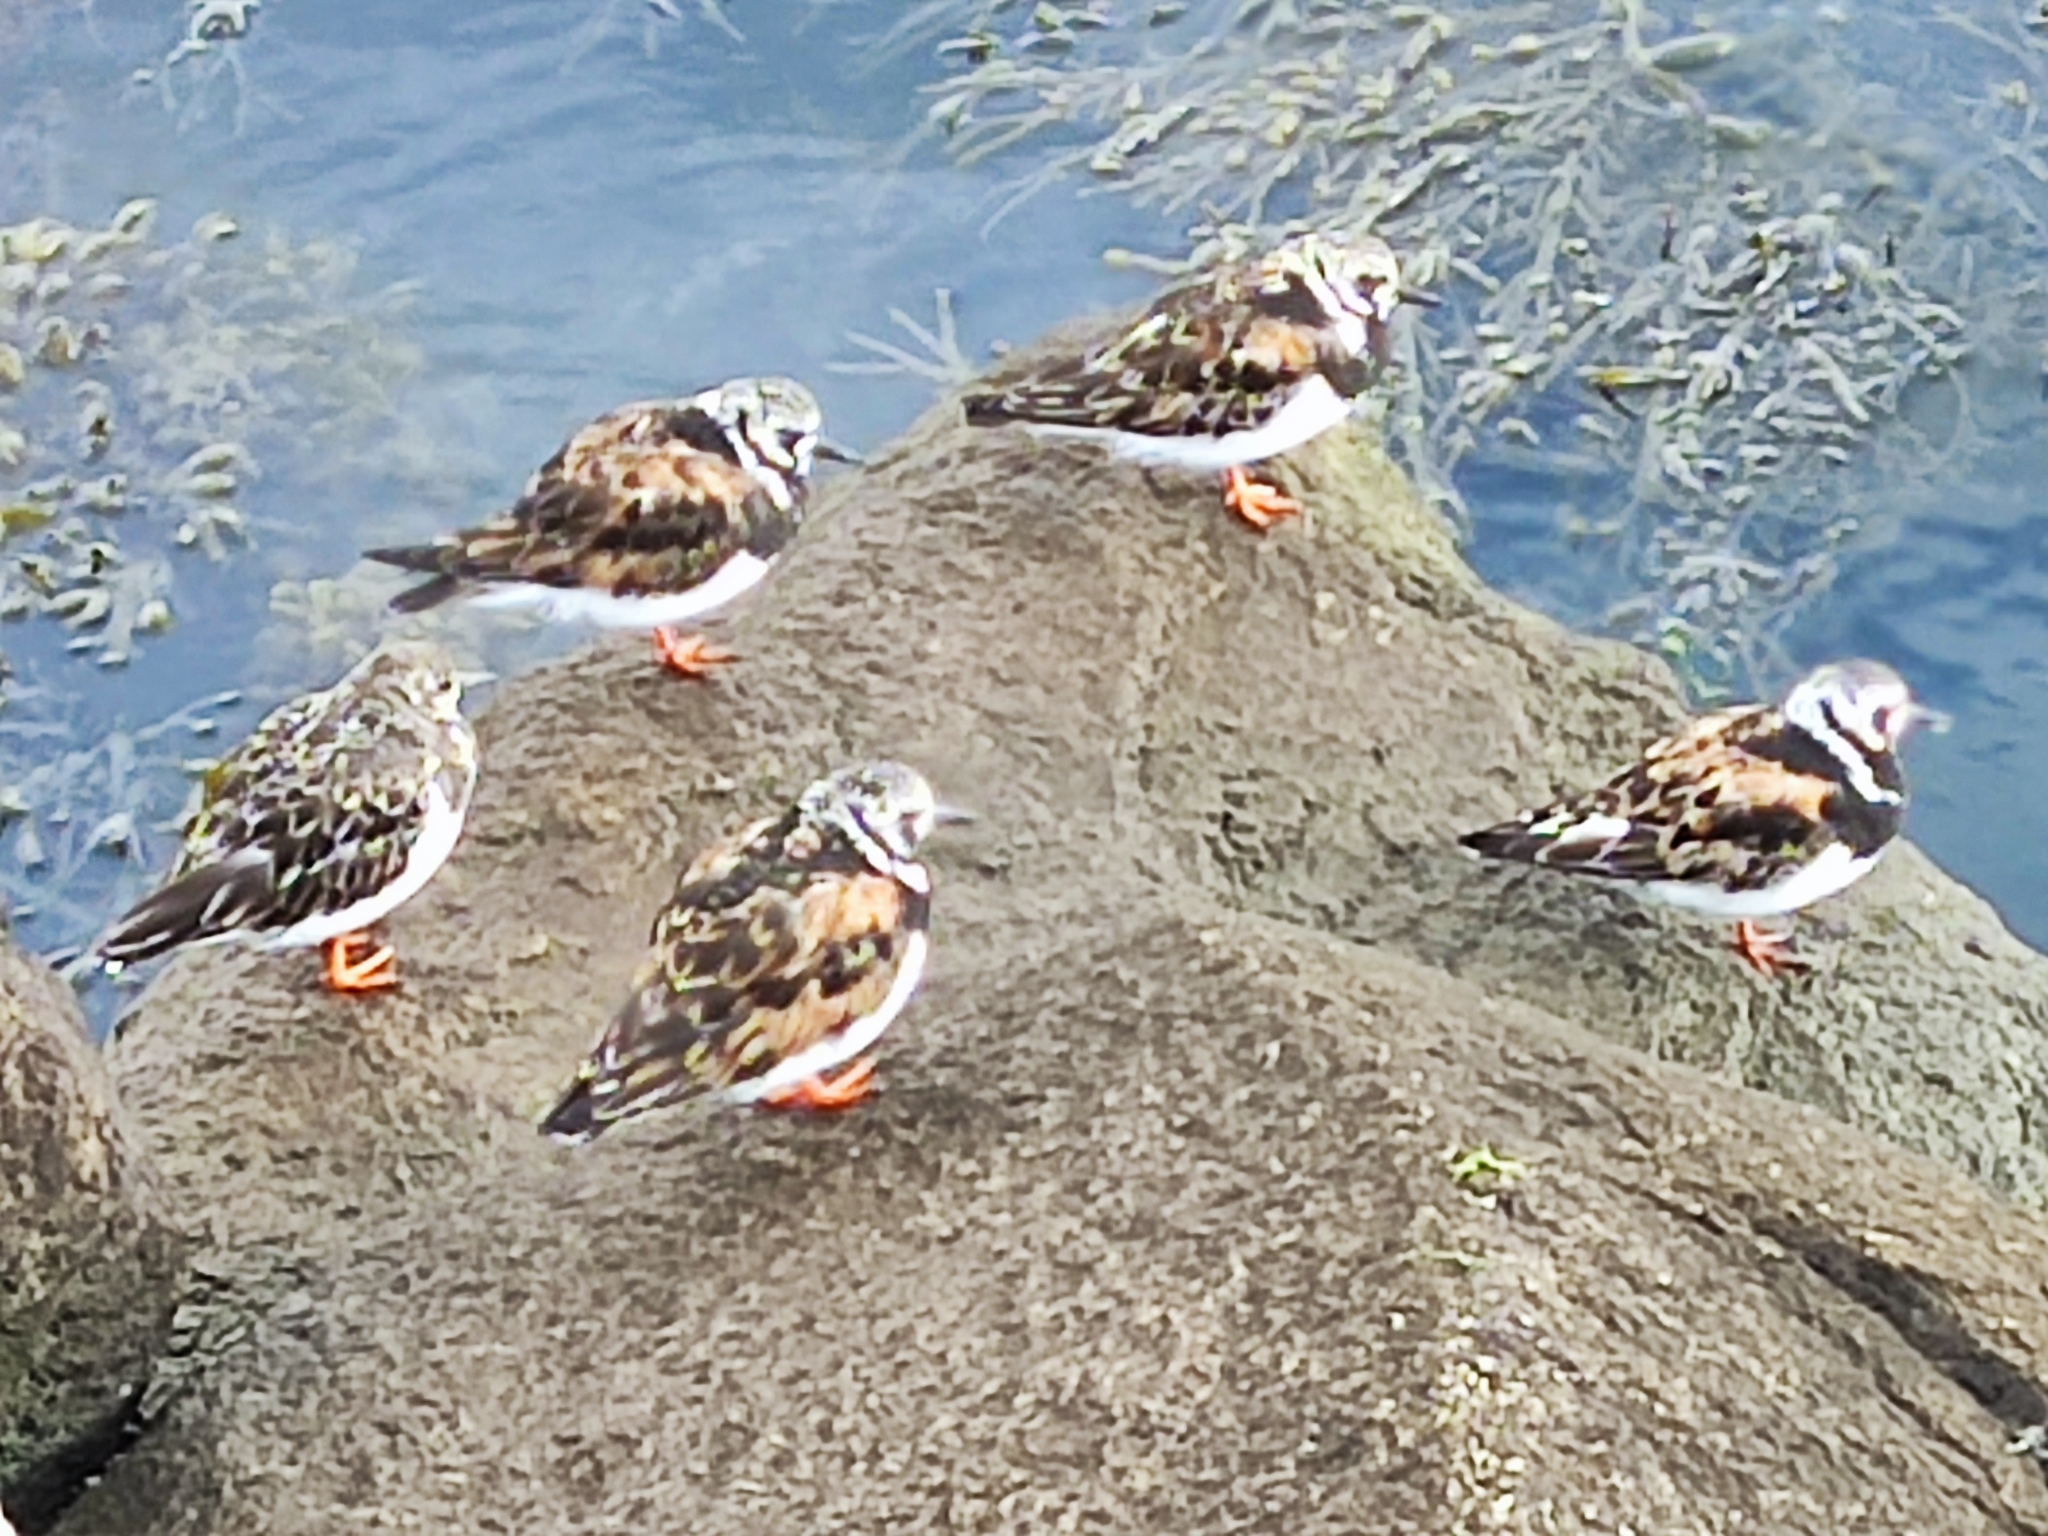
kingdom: Animalia
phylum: Chordata
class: Aves
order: Charadriiformes
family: Scolopacidae
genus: Arenaria
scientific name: Arenaria interpres
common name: Ruddy turnstone
